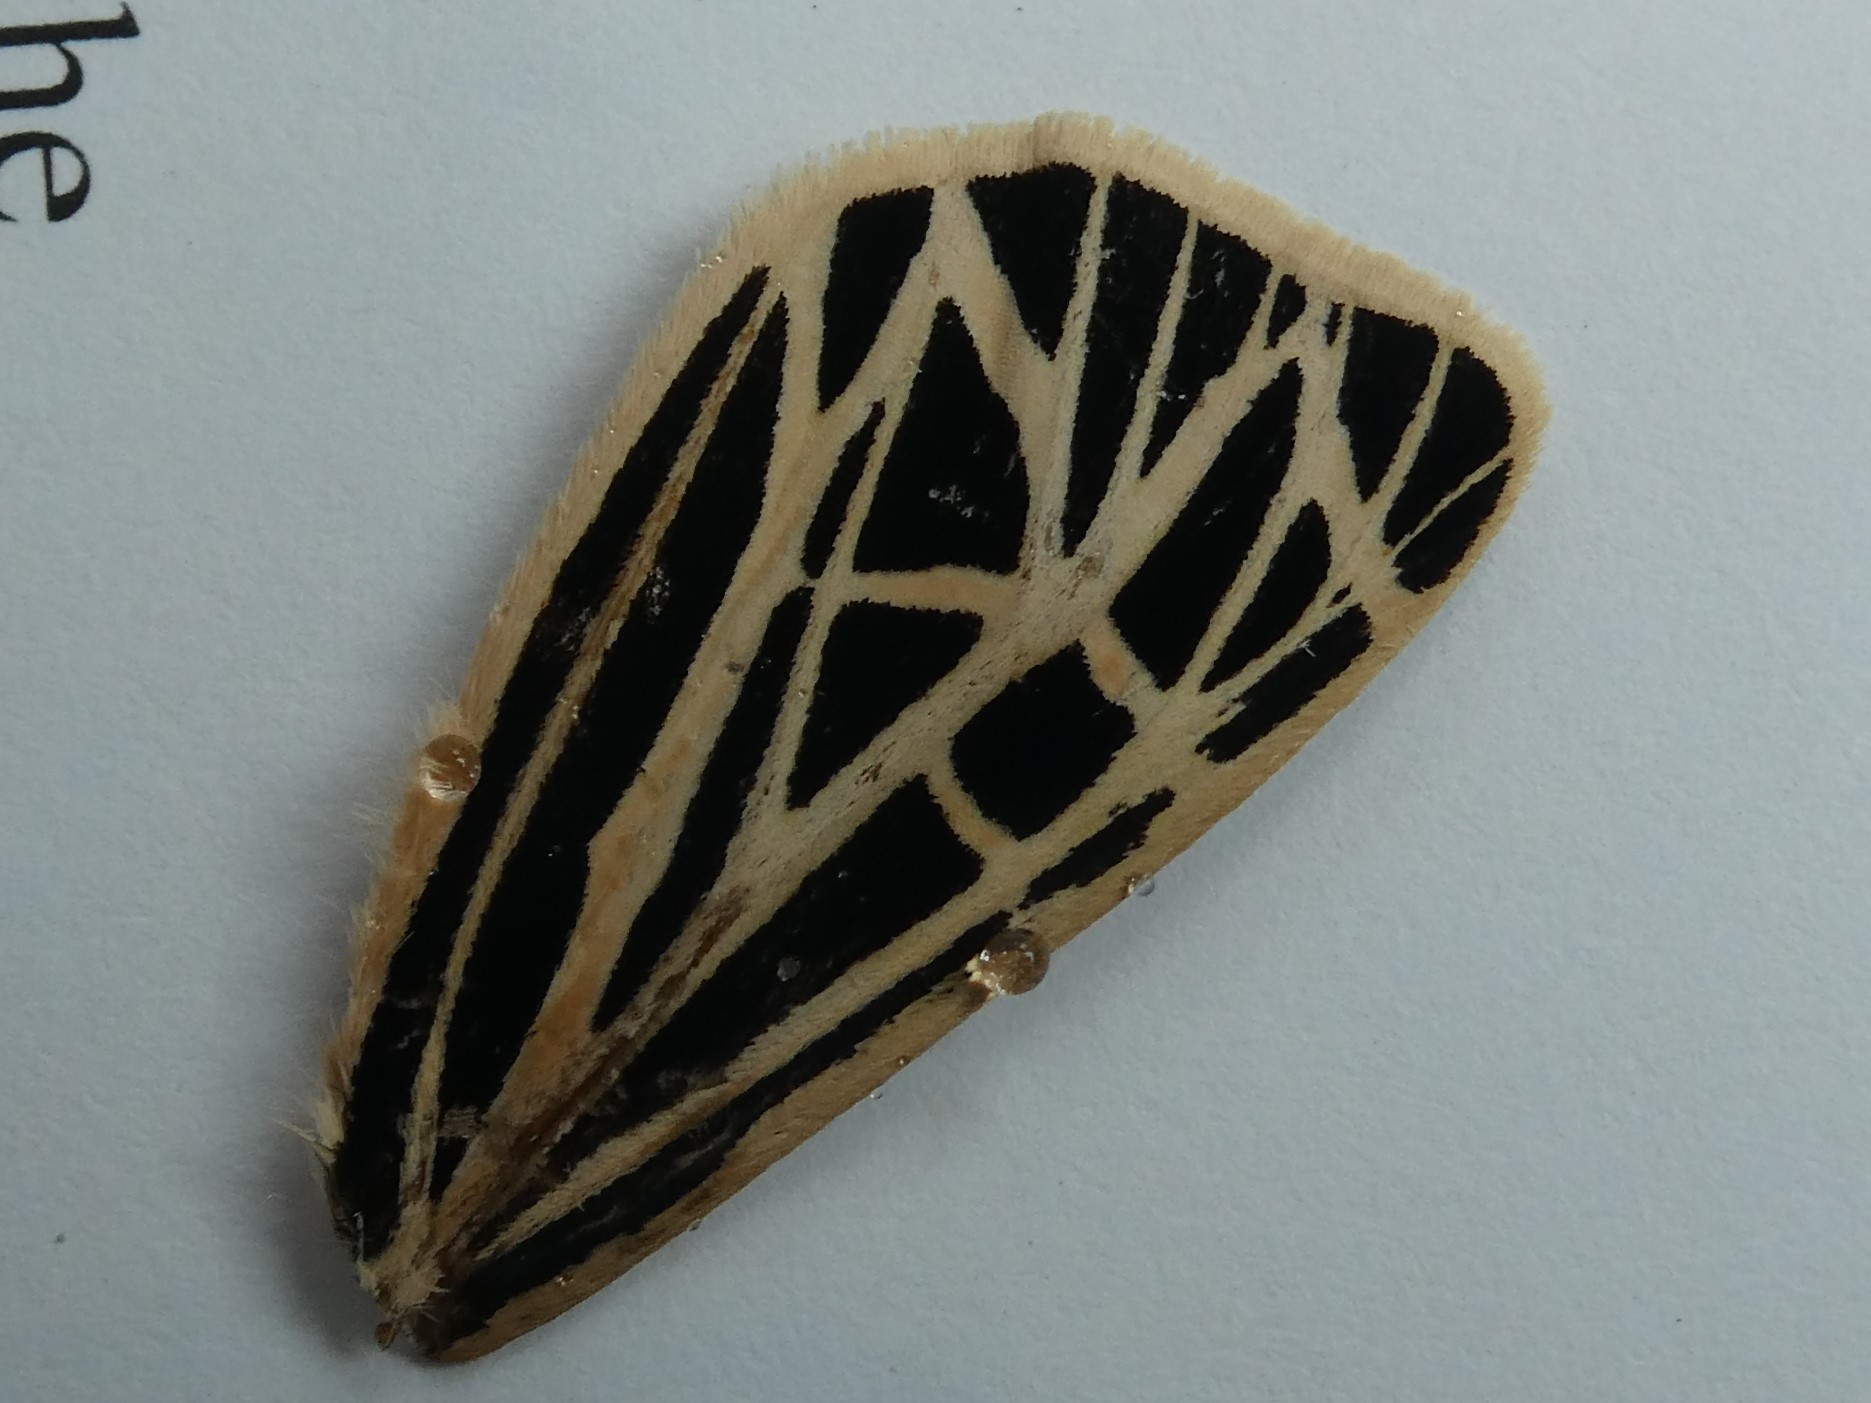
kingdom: Animalia
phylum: Arthropoda
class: Insecta
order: Lepidoptera
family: Erebidae
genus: Grammia
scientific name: Grammia virgo
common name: Virgin tiger moth
